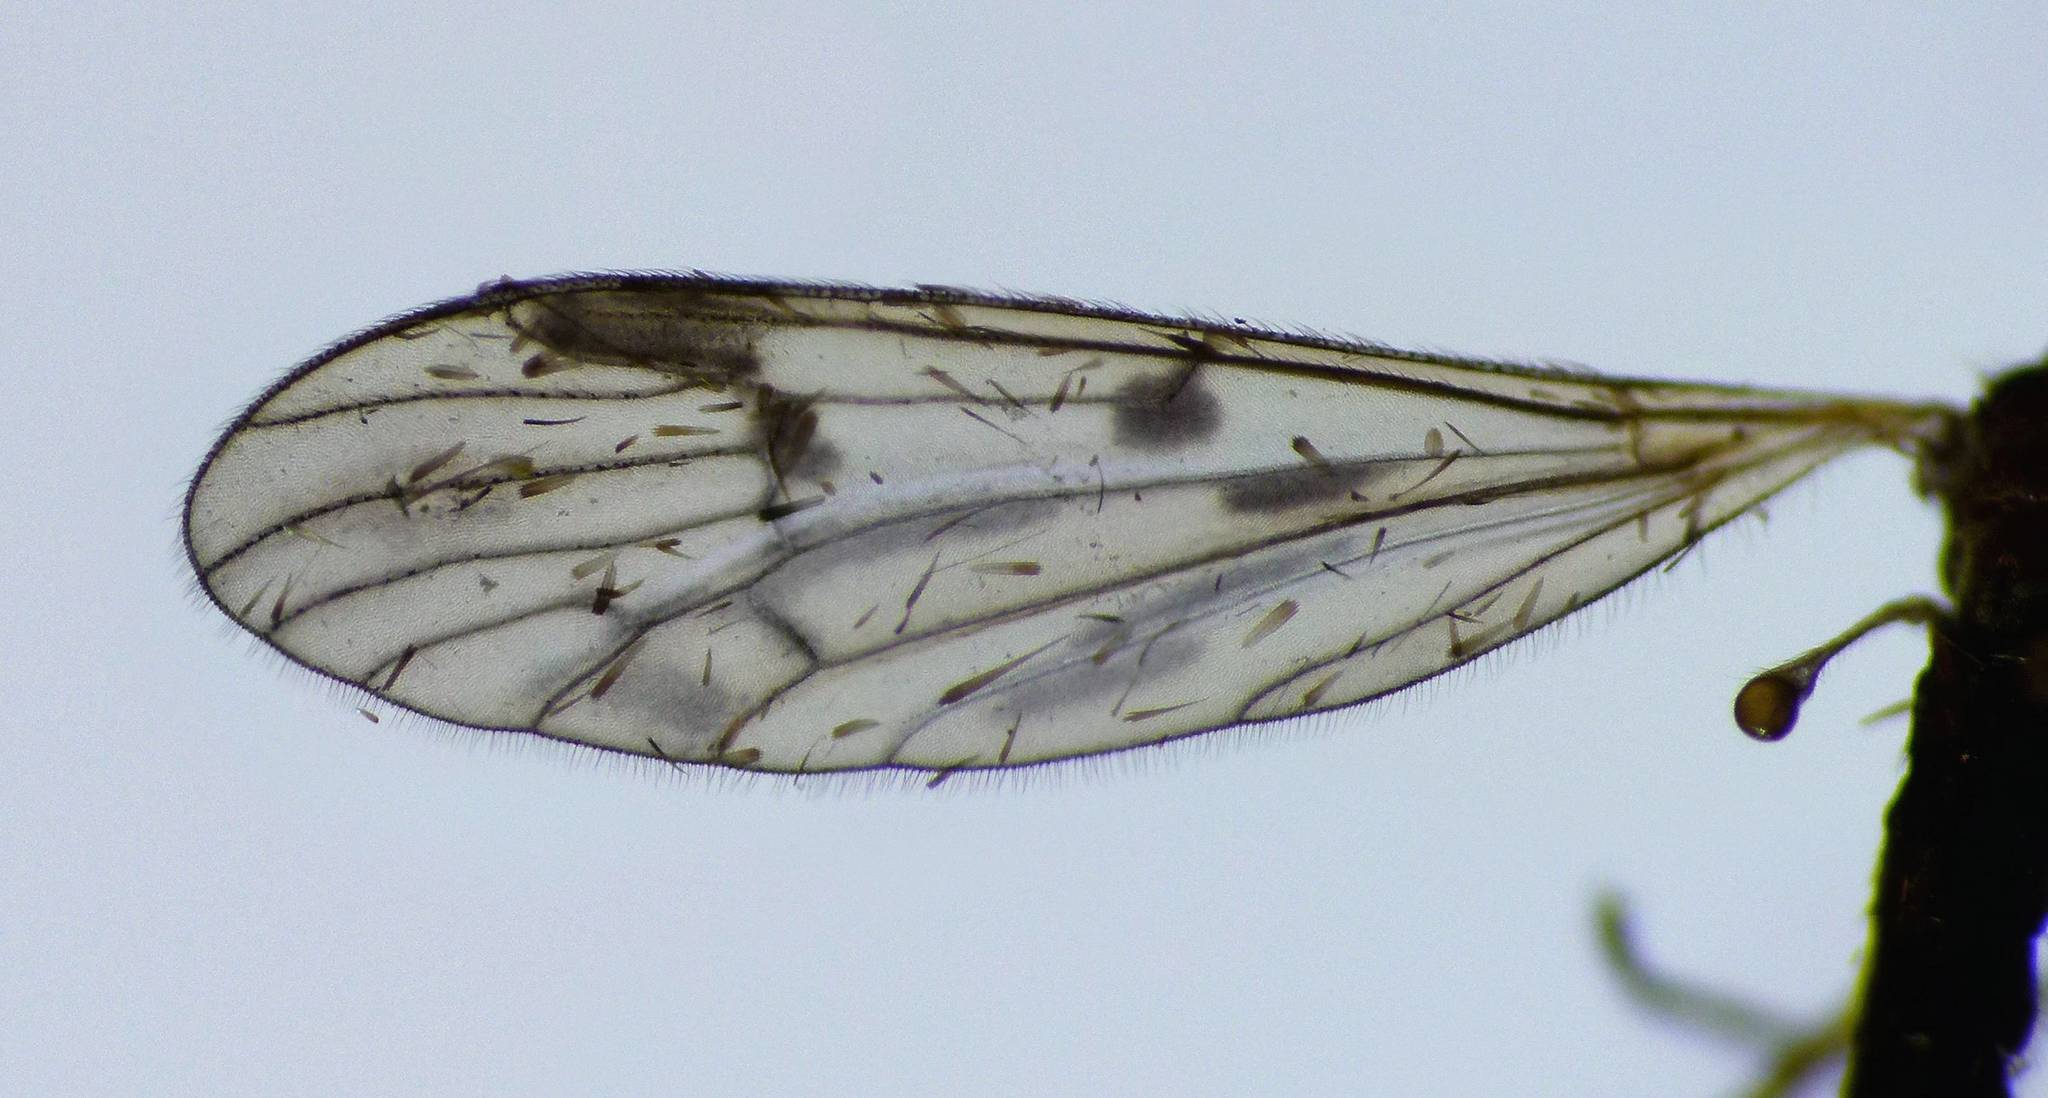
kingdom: Animalia
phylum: Arthropoda
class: Insecta
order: Diptera
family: Limoniidae
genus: Gynoplistia
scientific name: Gynoplistia otagana
